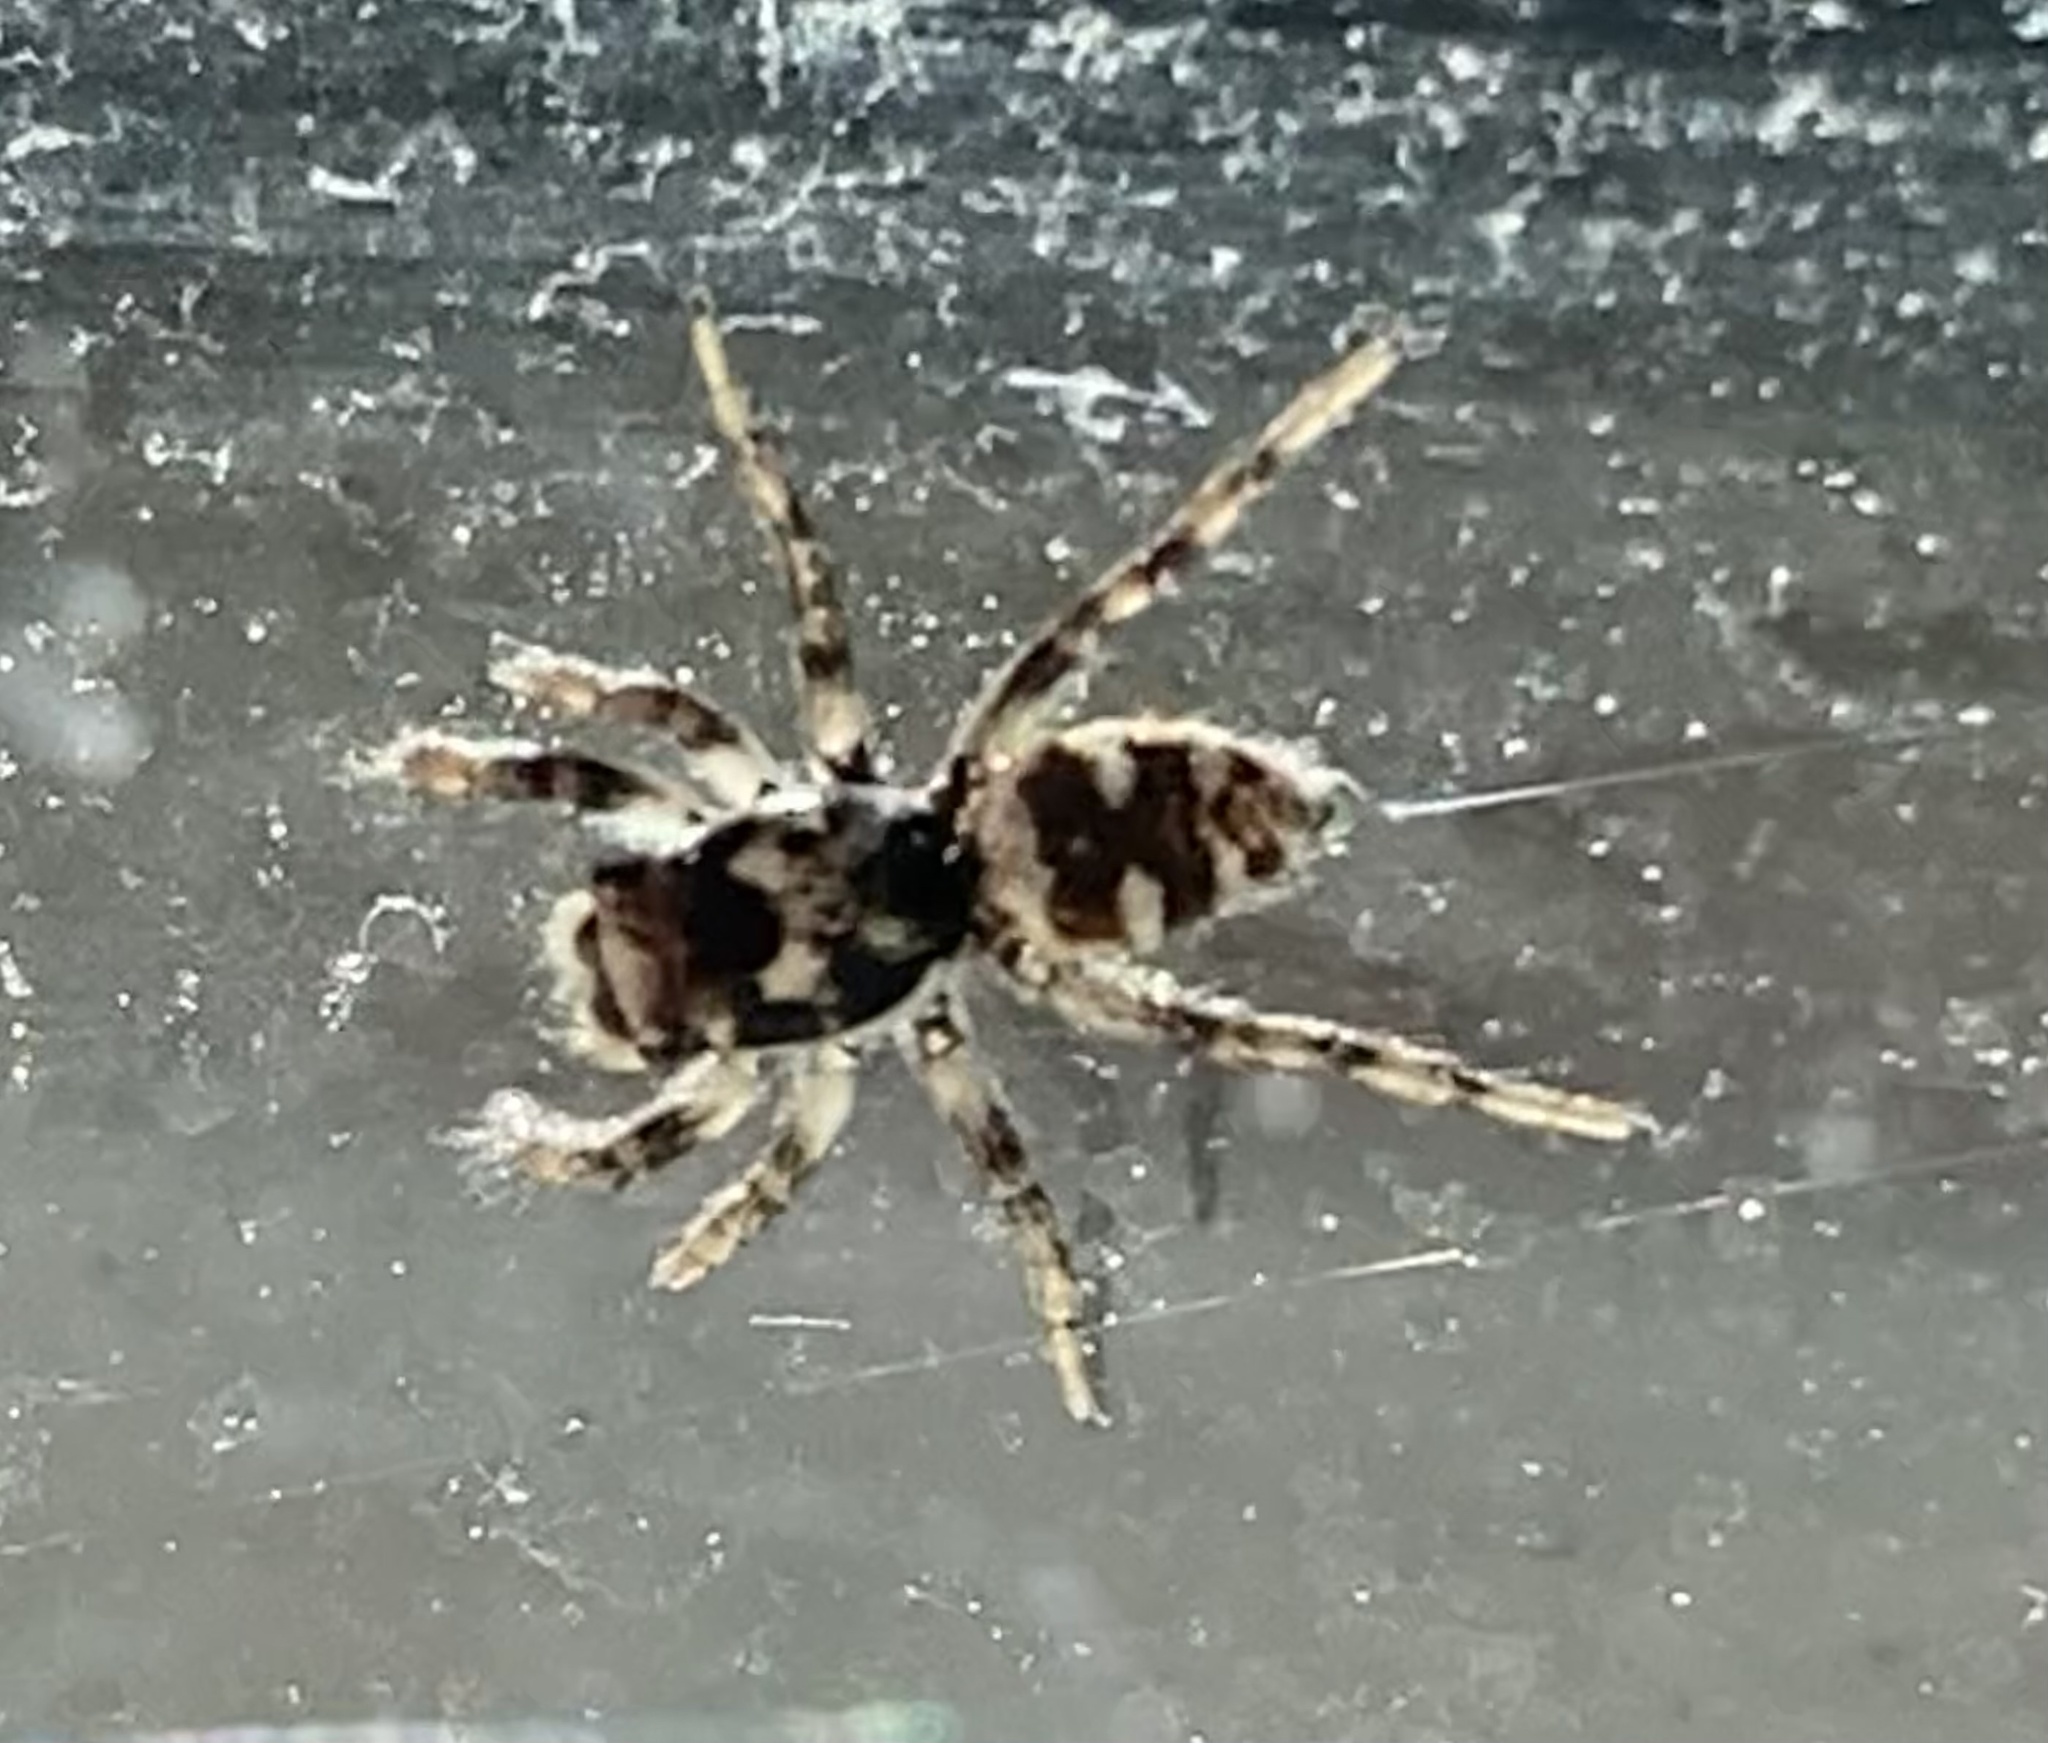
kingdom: Animalia
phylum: Arthropoda
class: Arachnida
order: Araneae
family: Salticidae
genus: Salticus
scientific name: Salticus scenicus
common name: Zebra jumper
